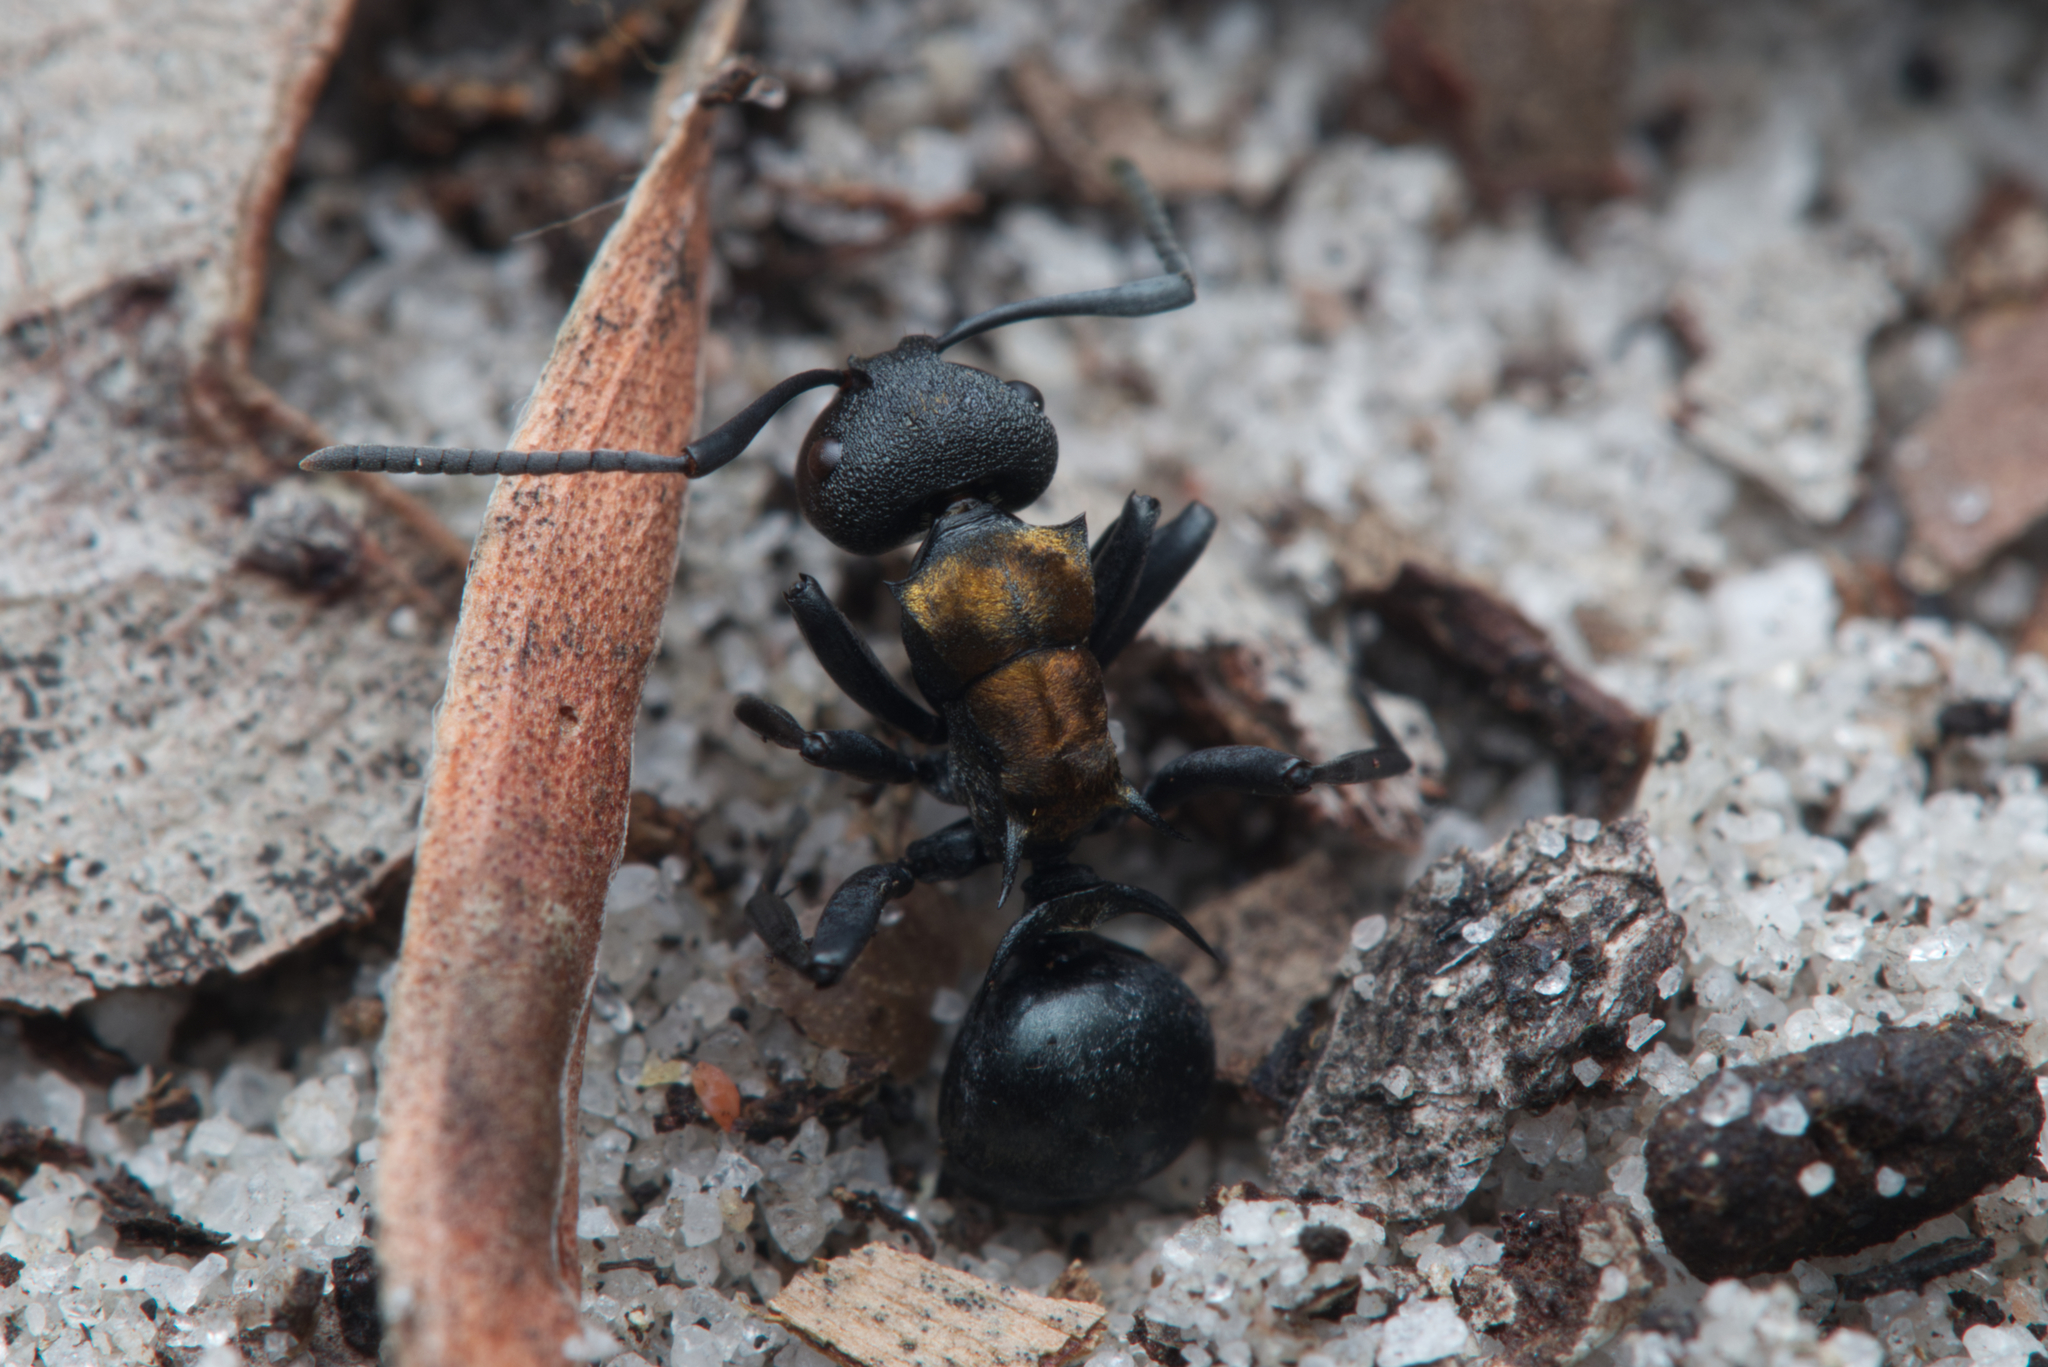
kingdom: Animalia
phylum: Arthropoda
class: Insecta
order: Hymenoptera
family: Formicidae
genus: Polyrhachis
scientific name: Polyrhachis ornata
